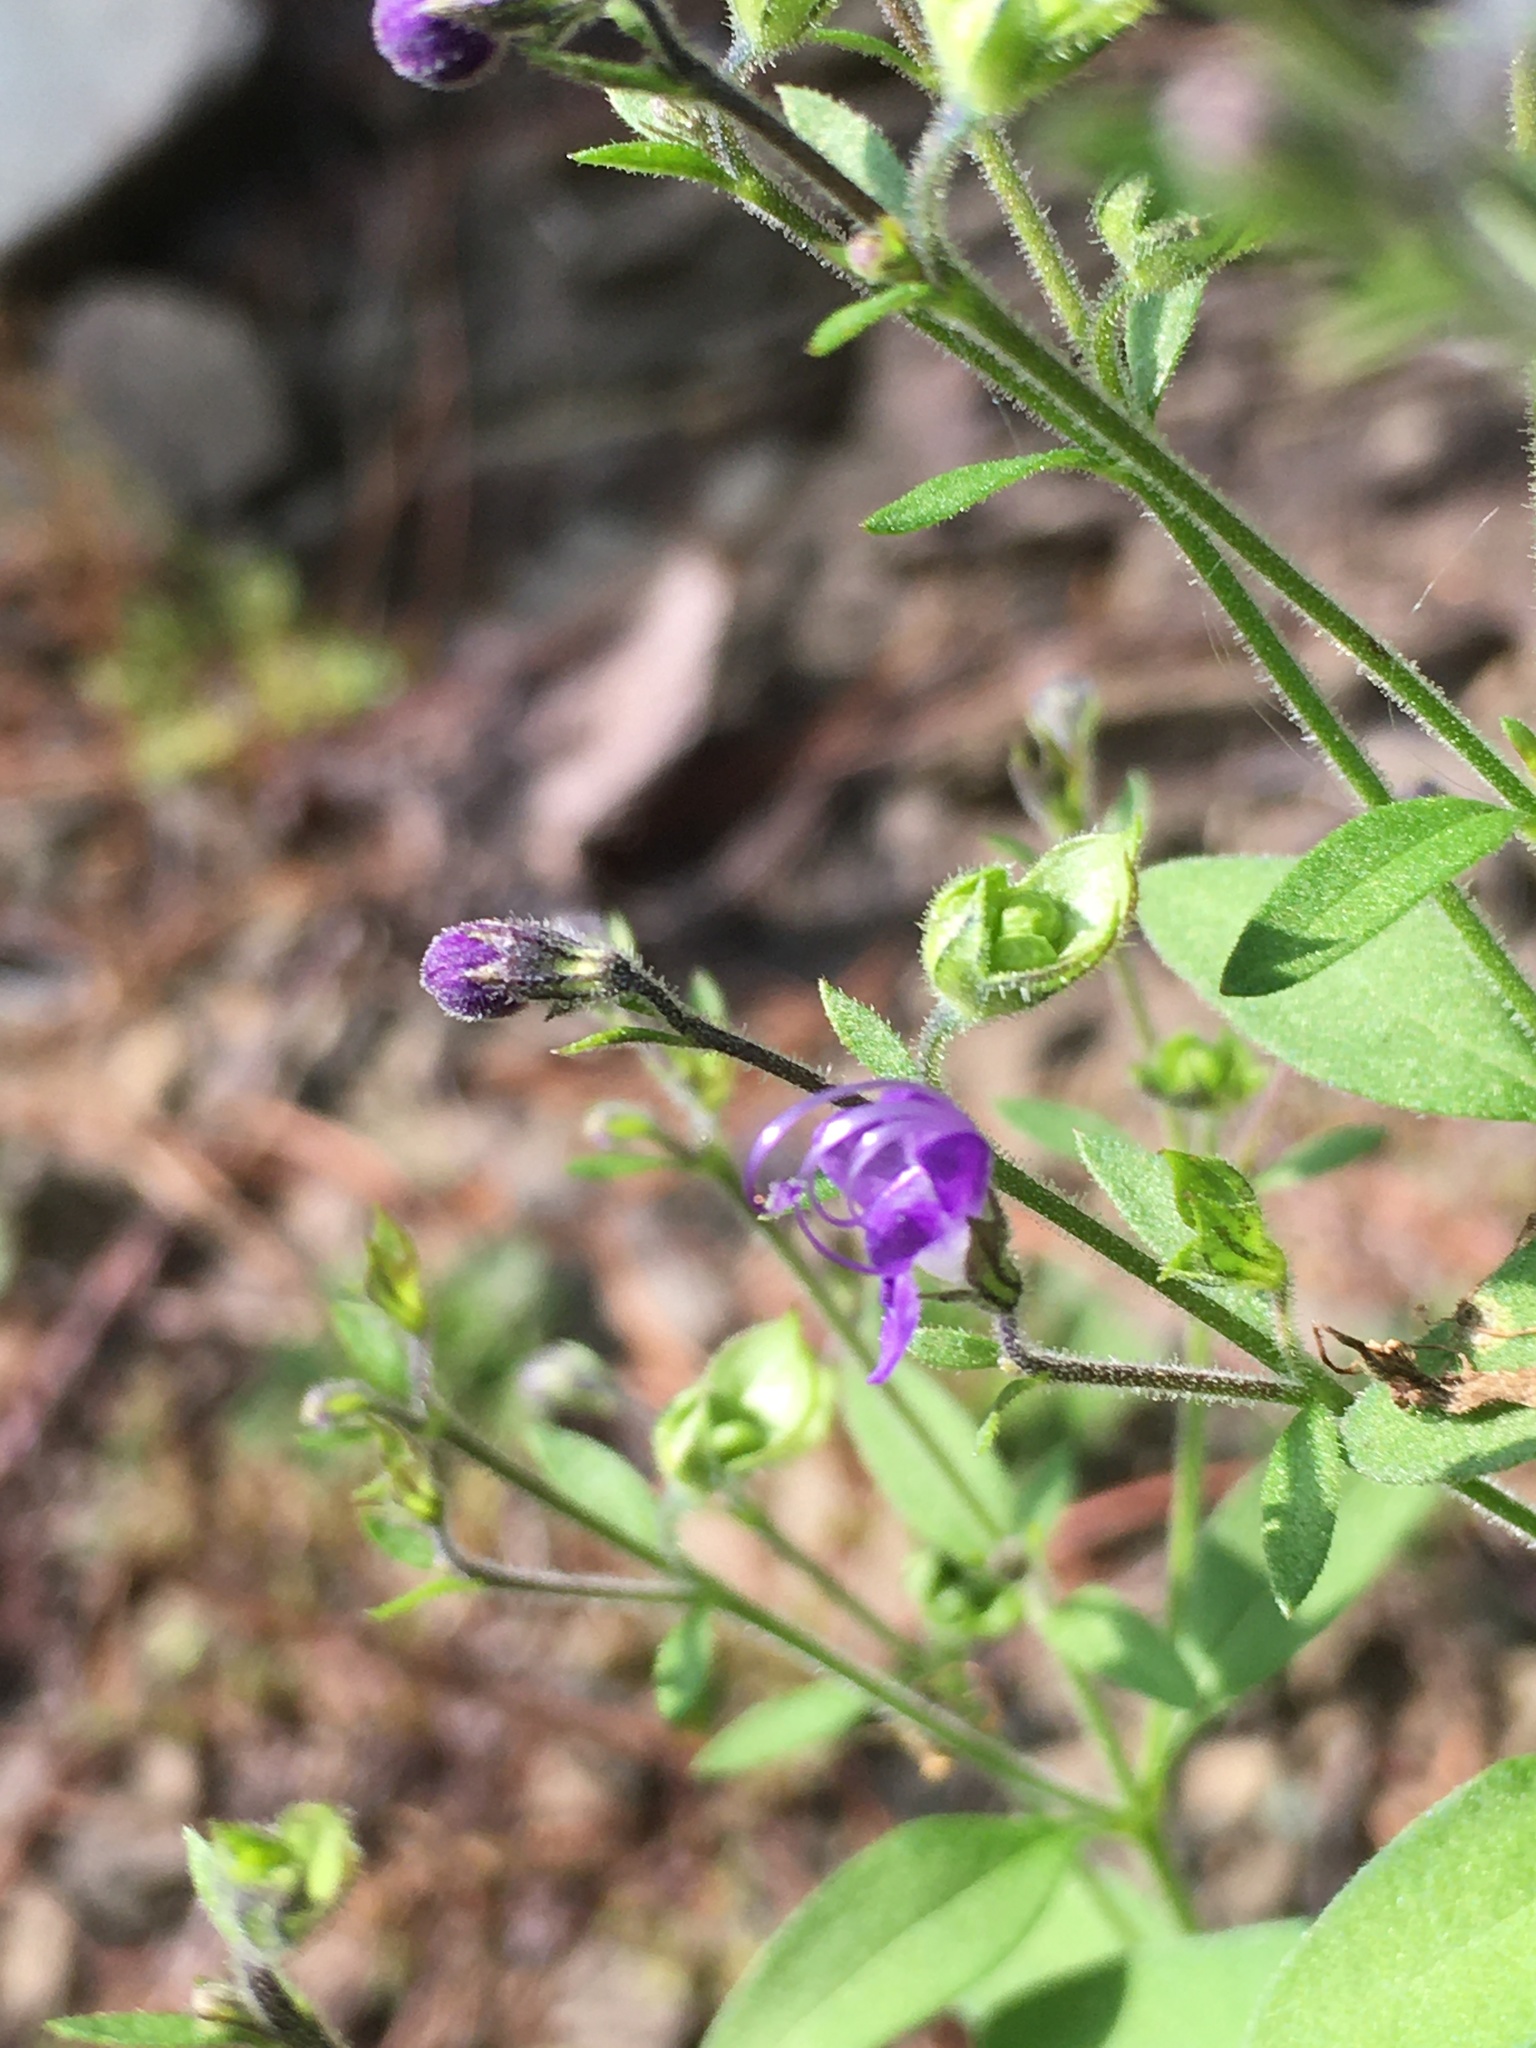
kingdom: Plantae
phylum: Tracheophyta
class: Magnoliopsida
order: Lamiales
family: Lamiaceae
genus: Trichostema
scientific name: Trichostema dichotomum
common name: Bastard pennyroyal
